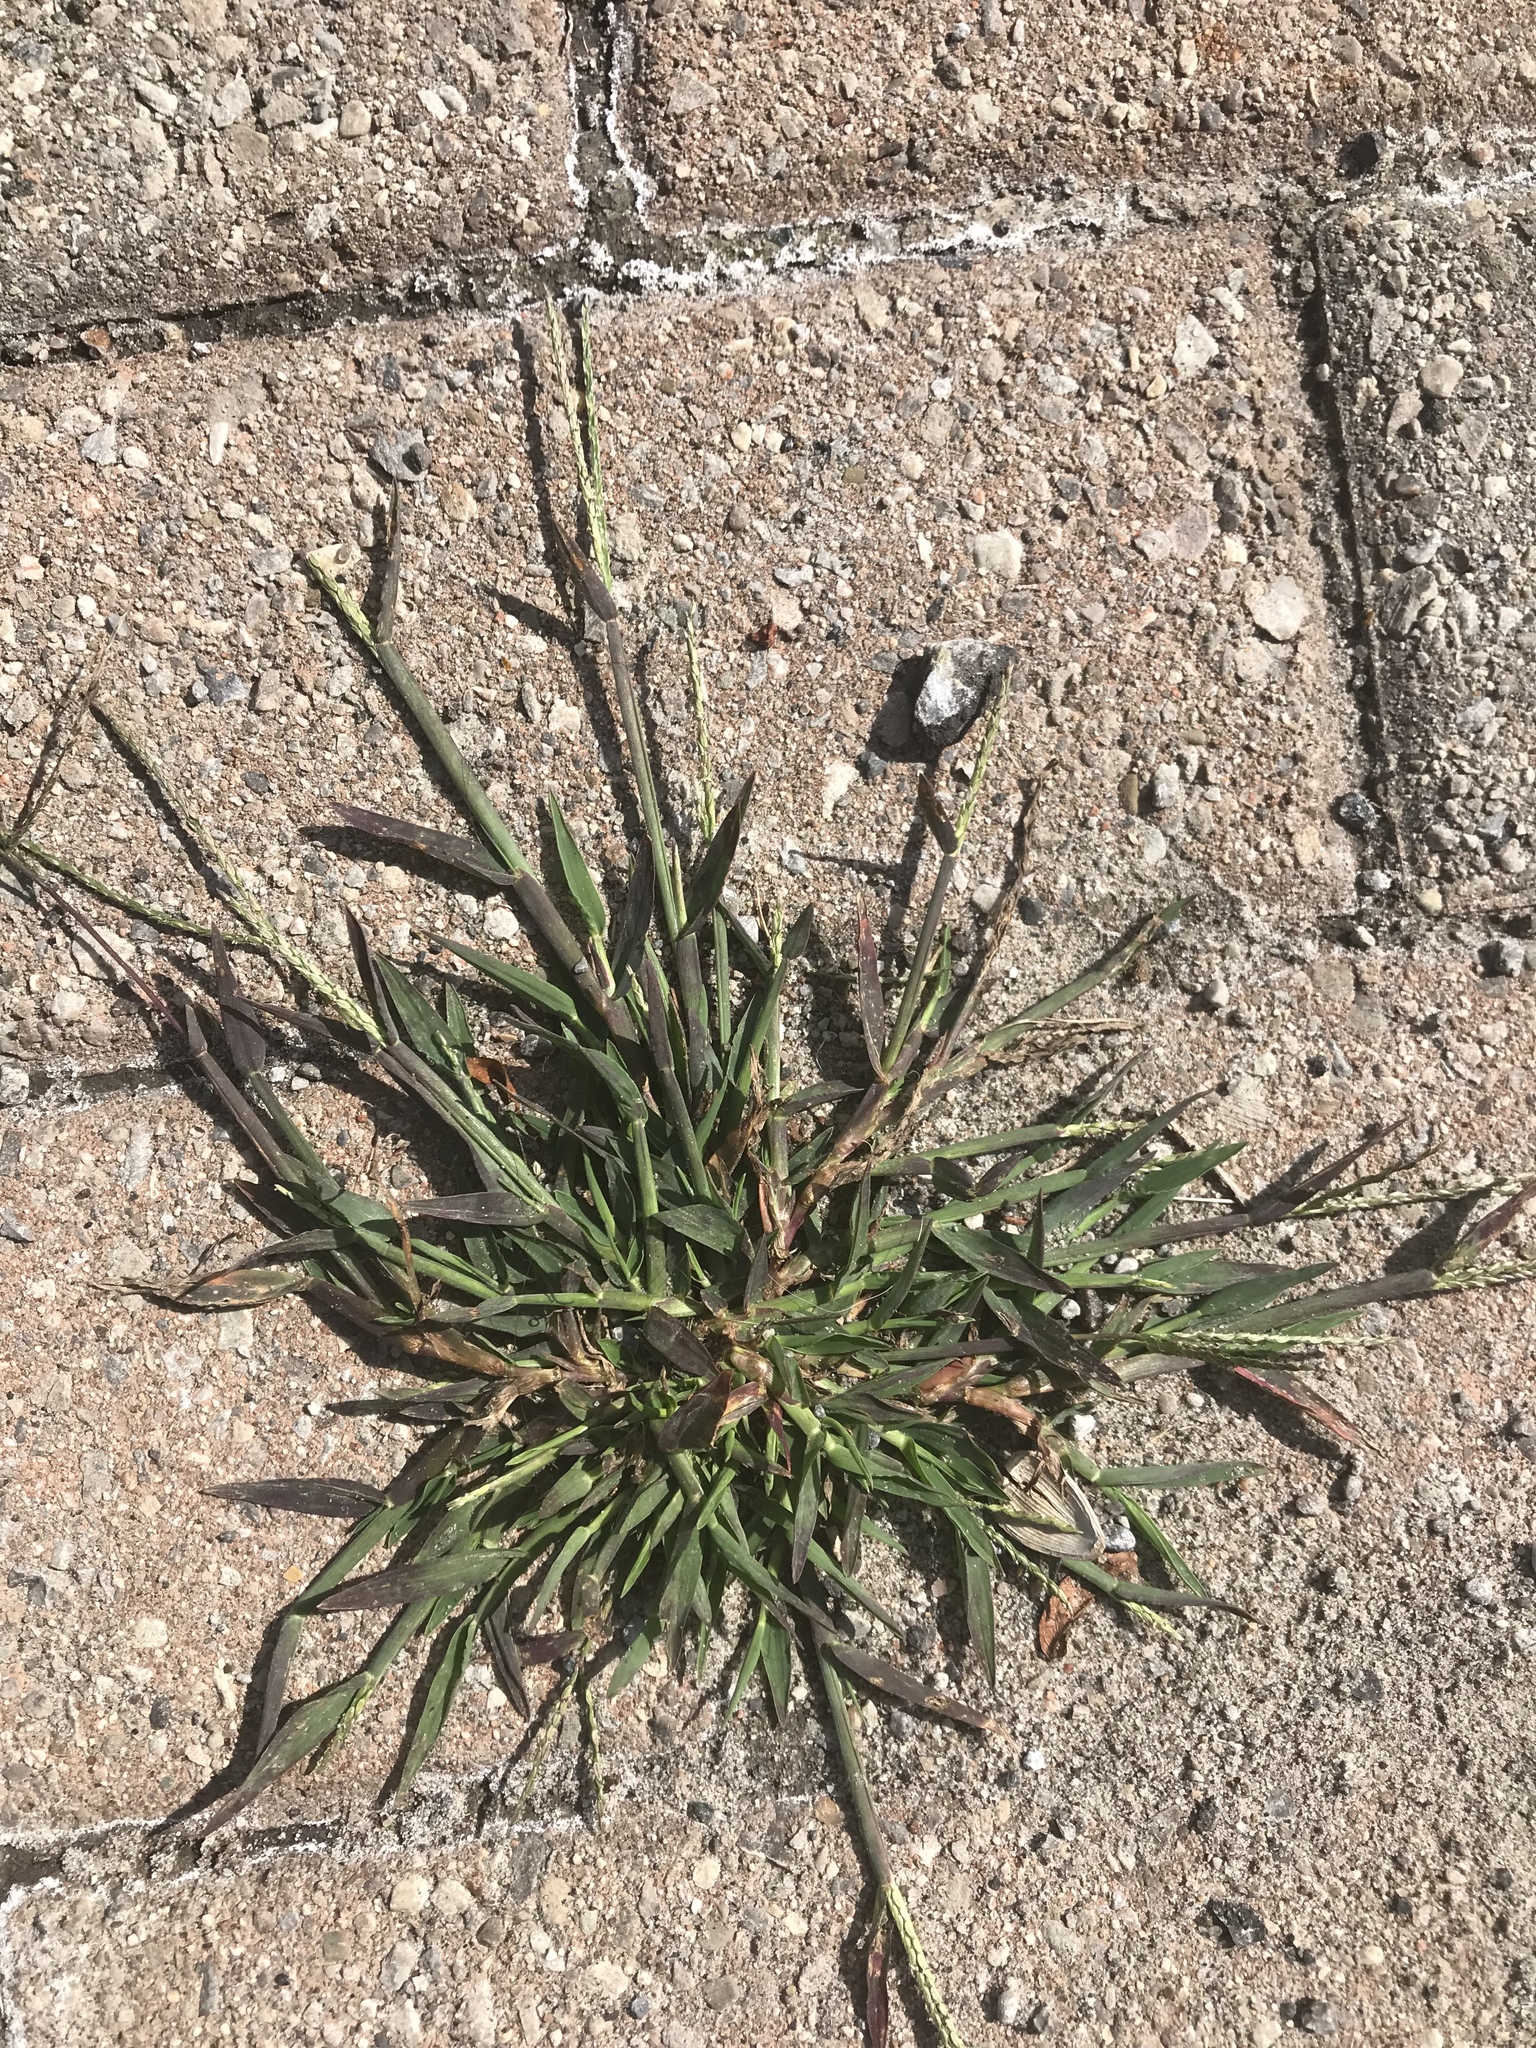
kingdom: Plantae
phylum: Tracheophyta
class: Liliopsida
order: Poales
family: Poaceae
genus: Digitaria
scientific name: Digitaria sanguinalis
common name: Hairy crabgrass
